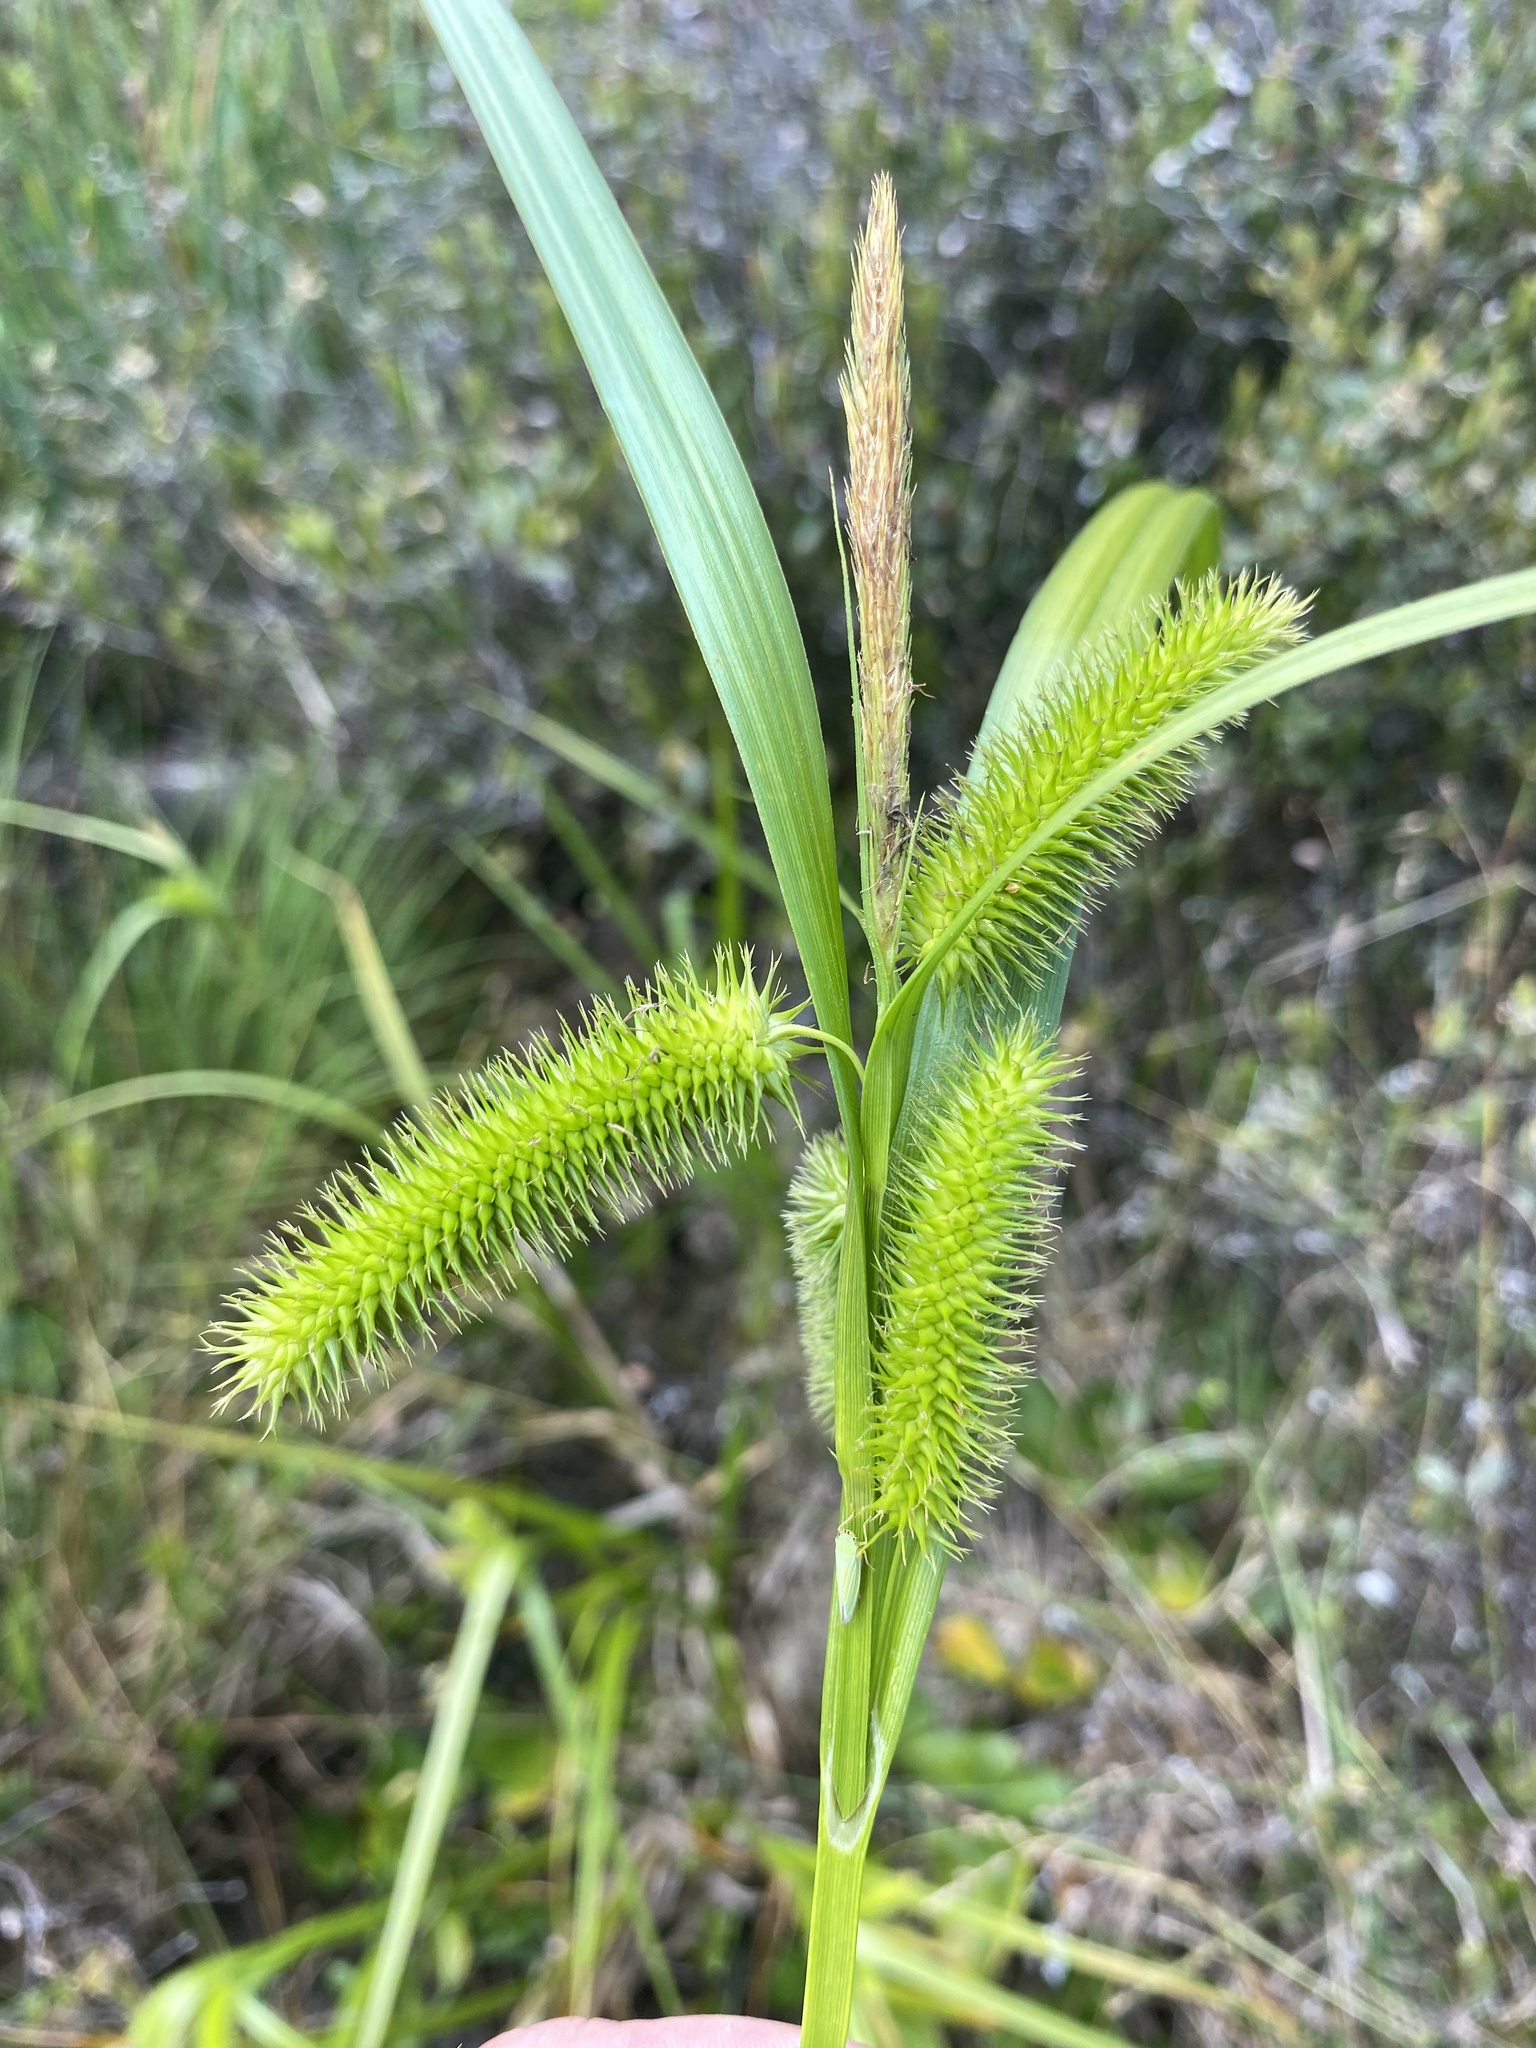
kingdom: Plantae
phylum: Tracheophyta
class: Liliopsida
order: Poales
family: Cyperaceae
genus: Carex
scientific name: Carex comosa
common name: Bristly sedge
